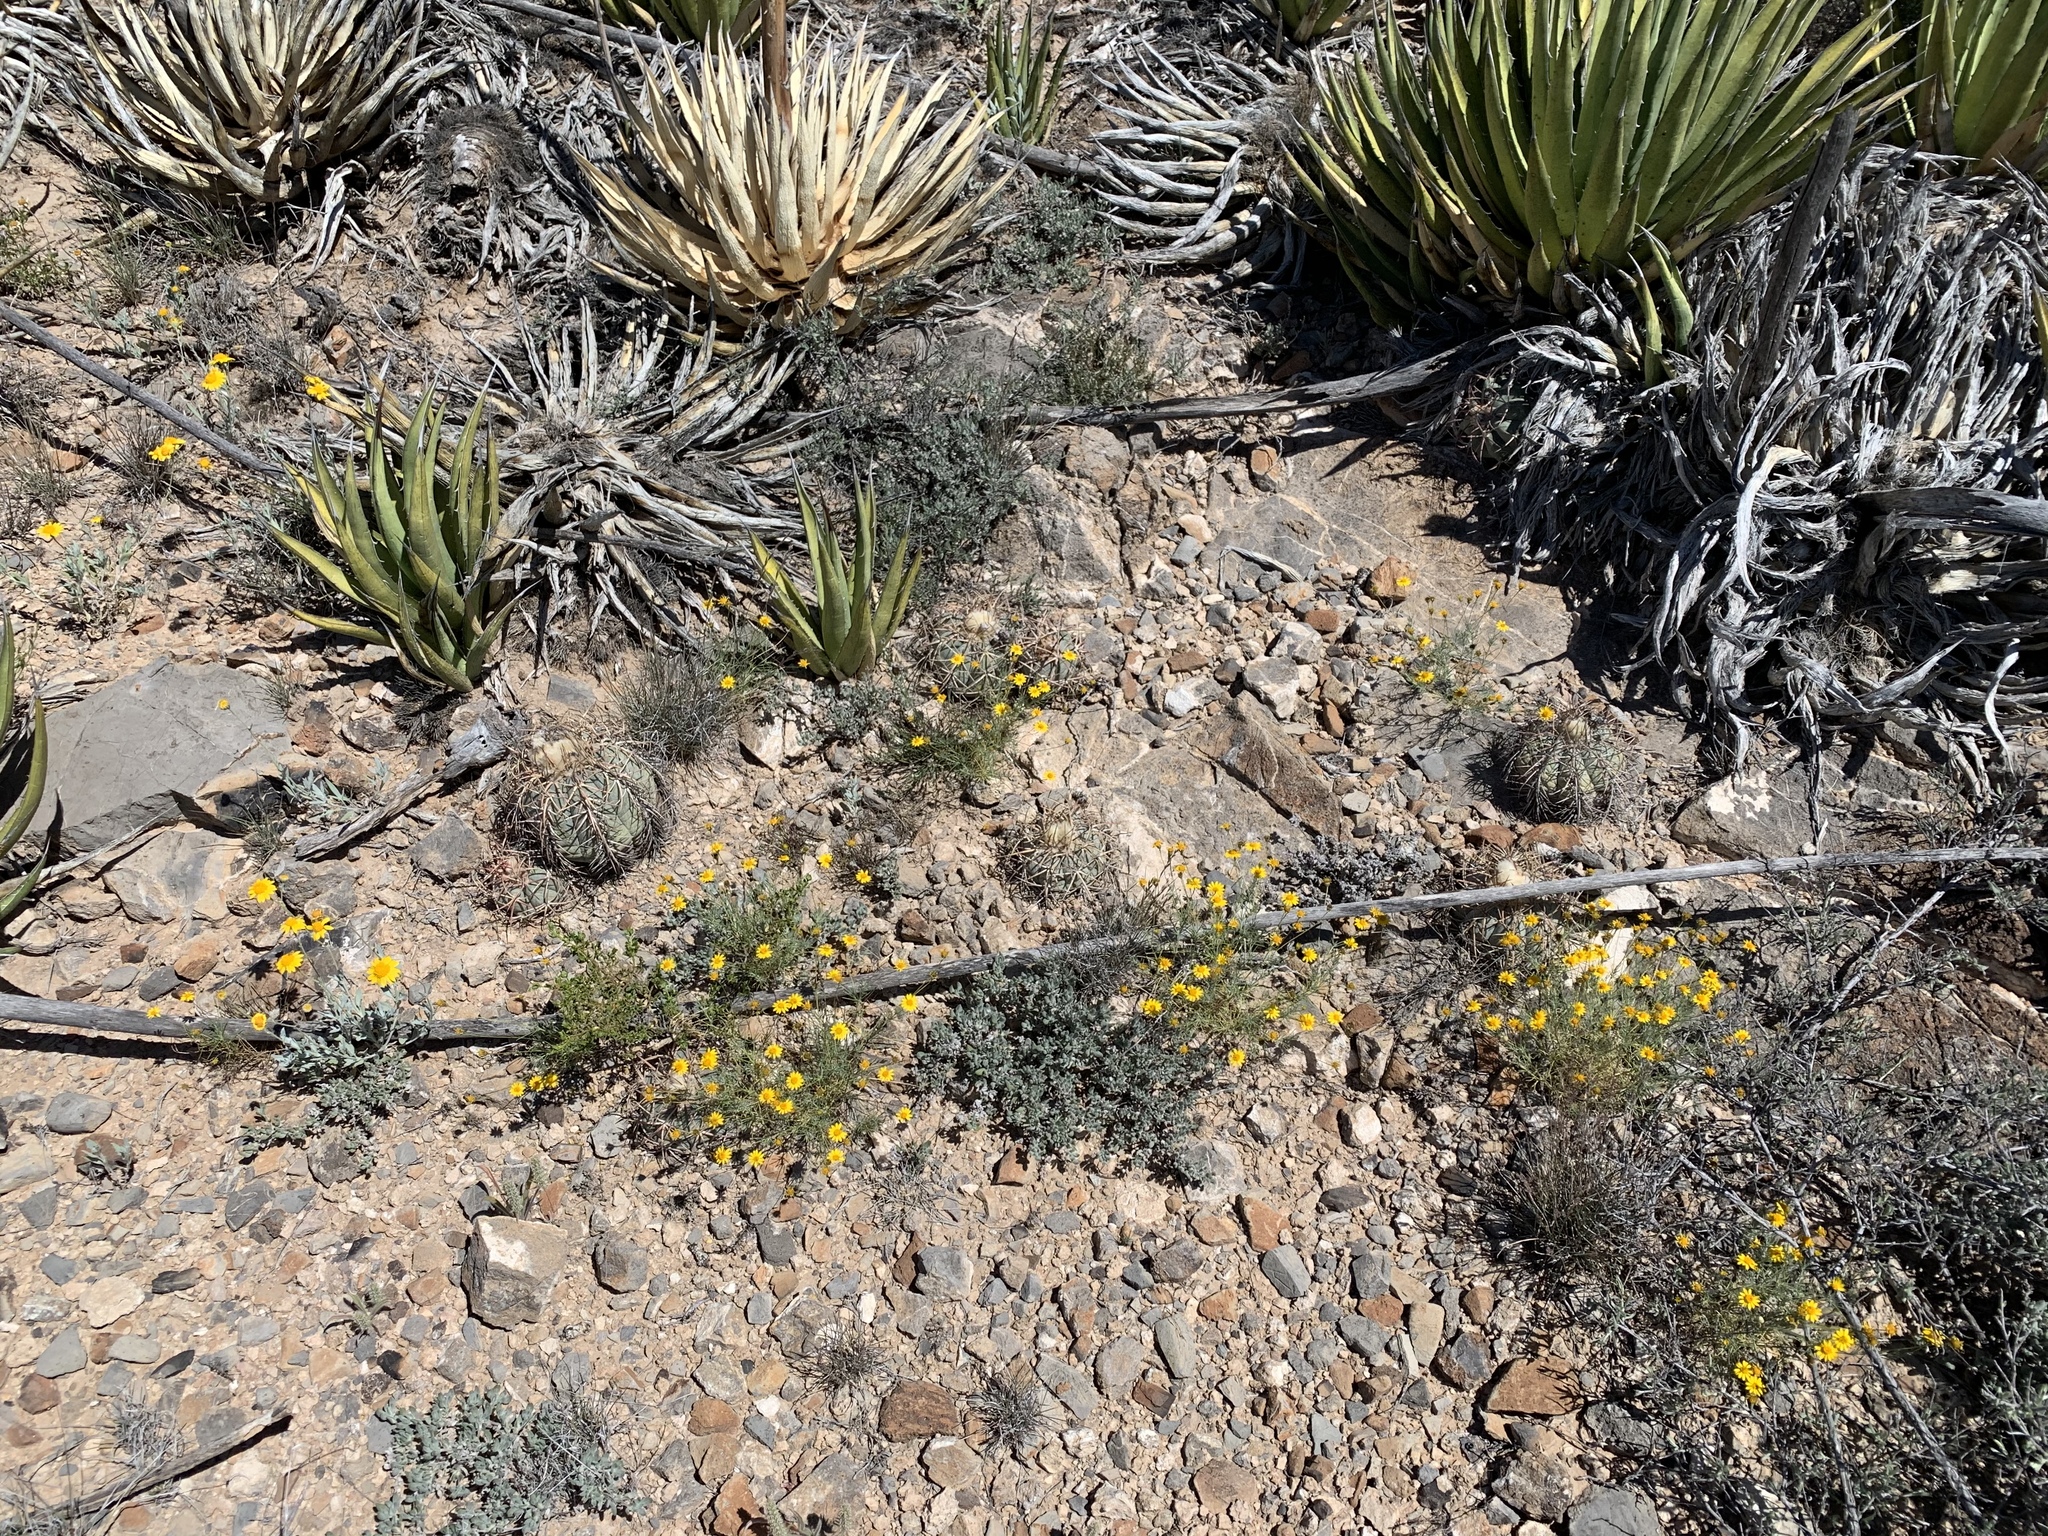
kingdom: Plantae
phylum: Tracheophyta
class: Magnoliopsida
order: Caryophyllales
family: Cactaceae
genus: Echinocactus
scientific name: Echinocactus horizonthalonius
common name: Devilshead
